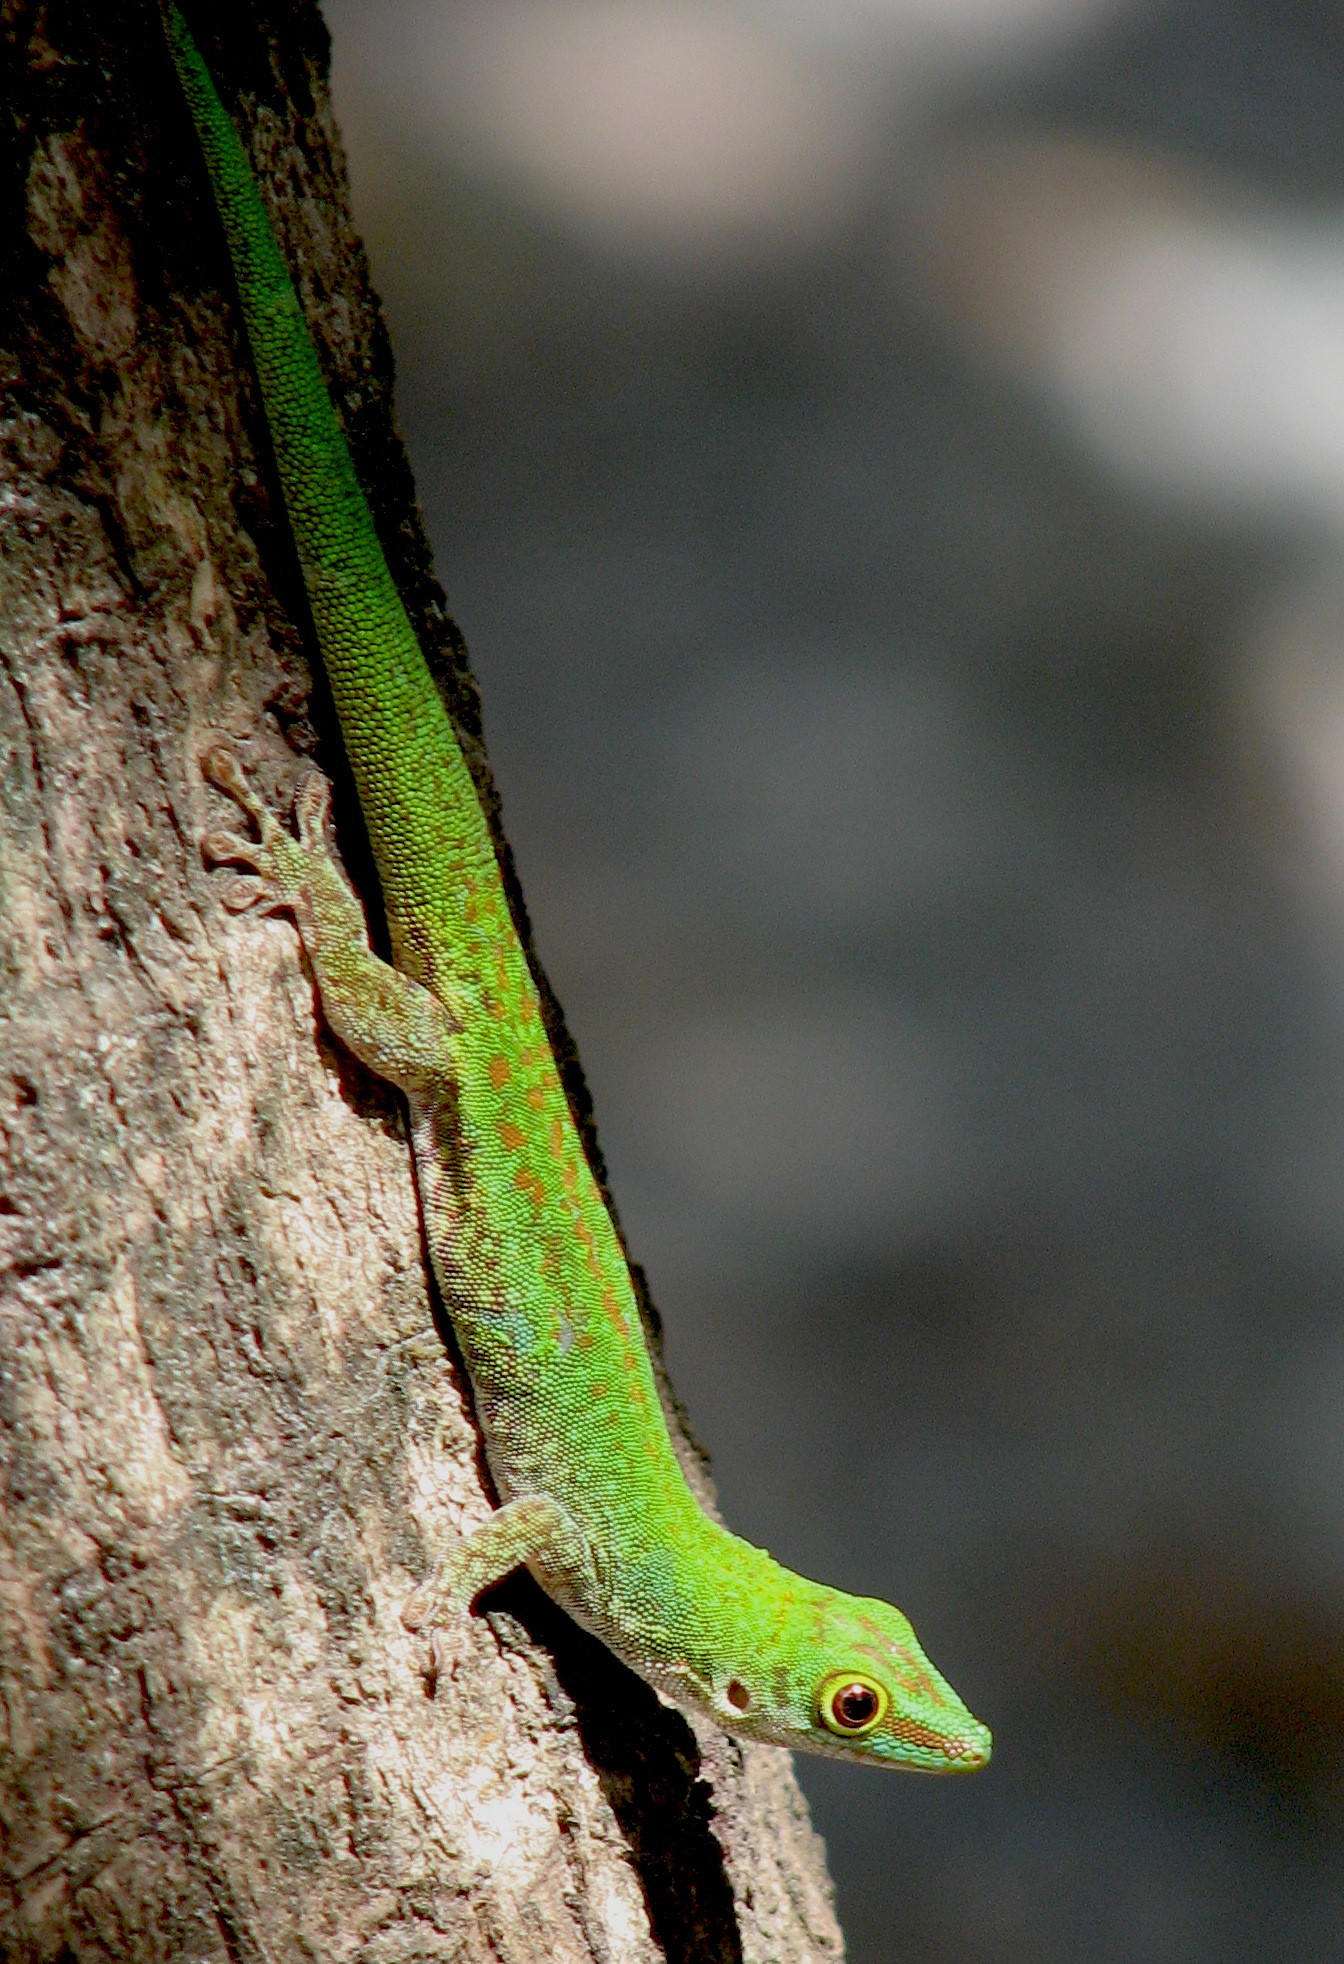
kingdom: Animalia
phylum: Chordata
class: Squamata
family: Gekkonidae
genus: Phelsuma
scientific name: Phelsuma sundbergi
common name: Seychelles giant day gecko
